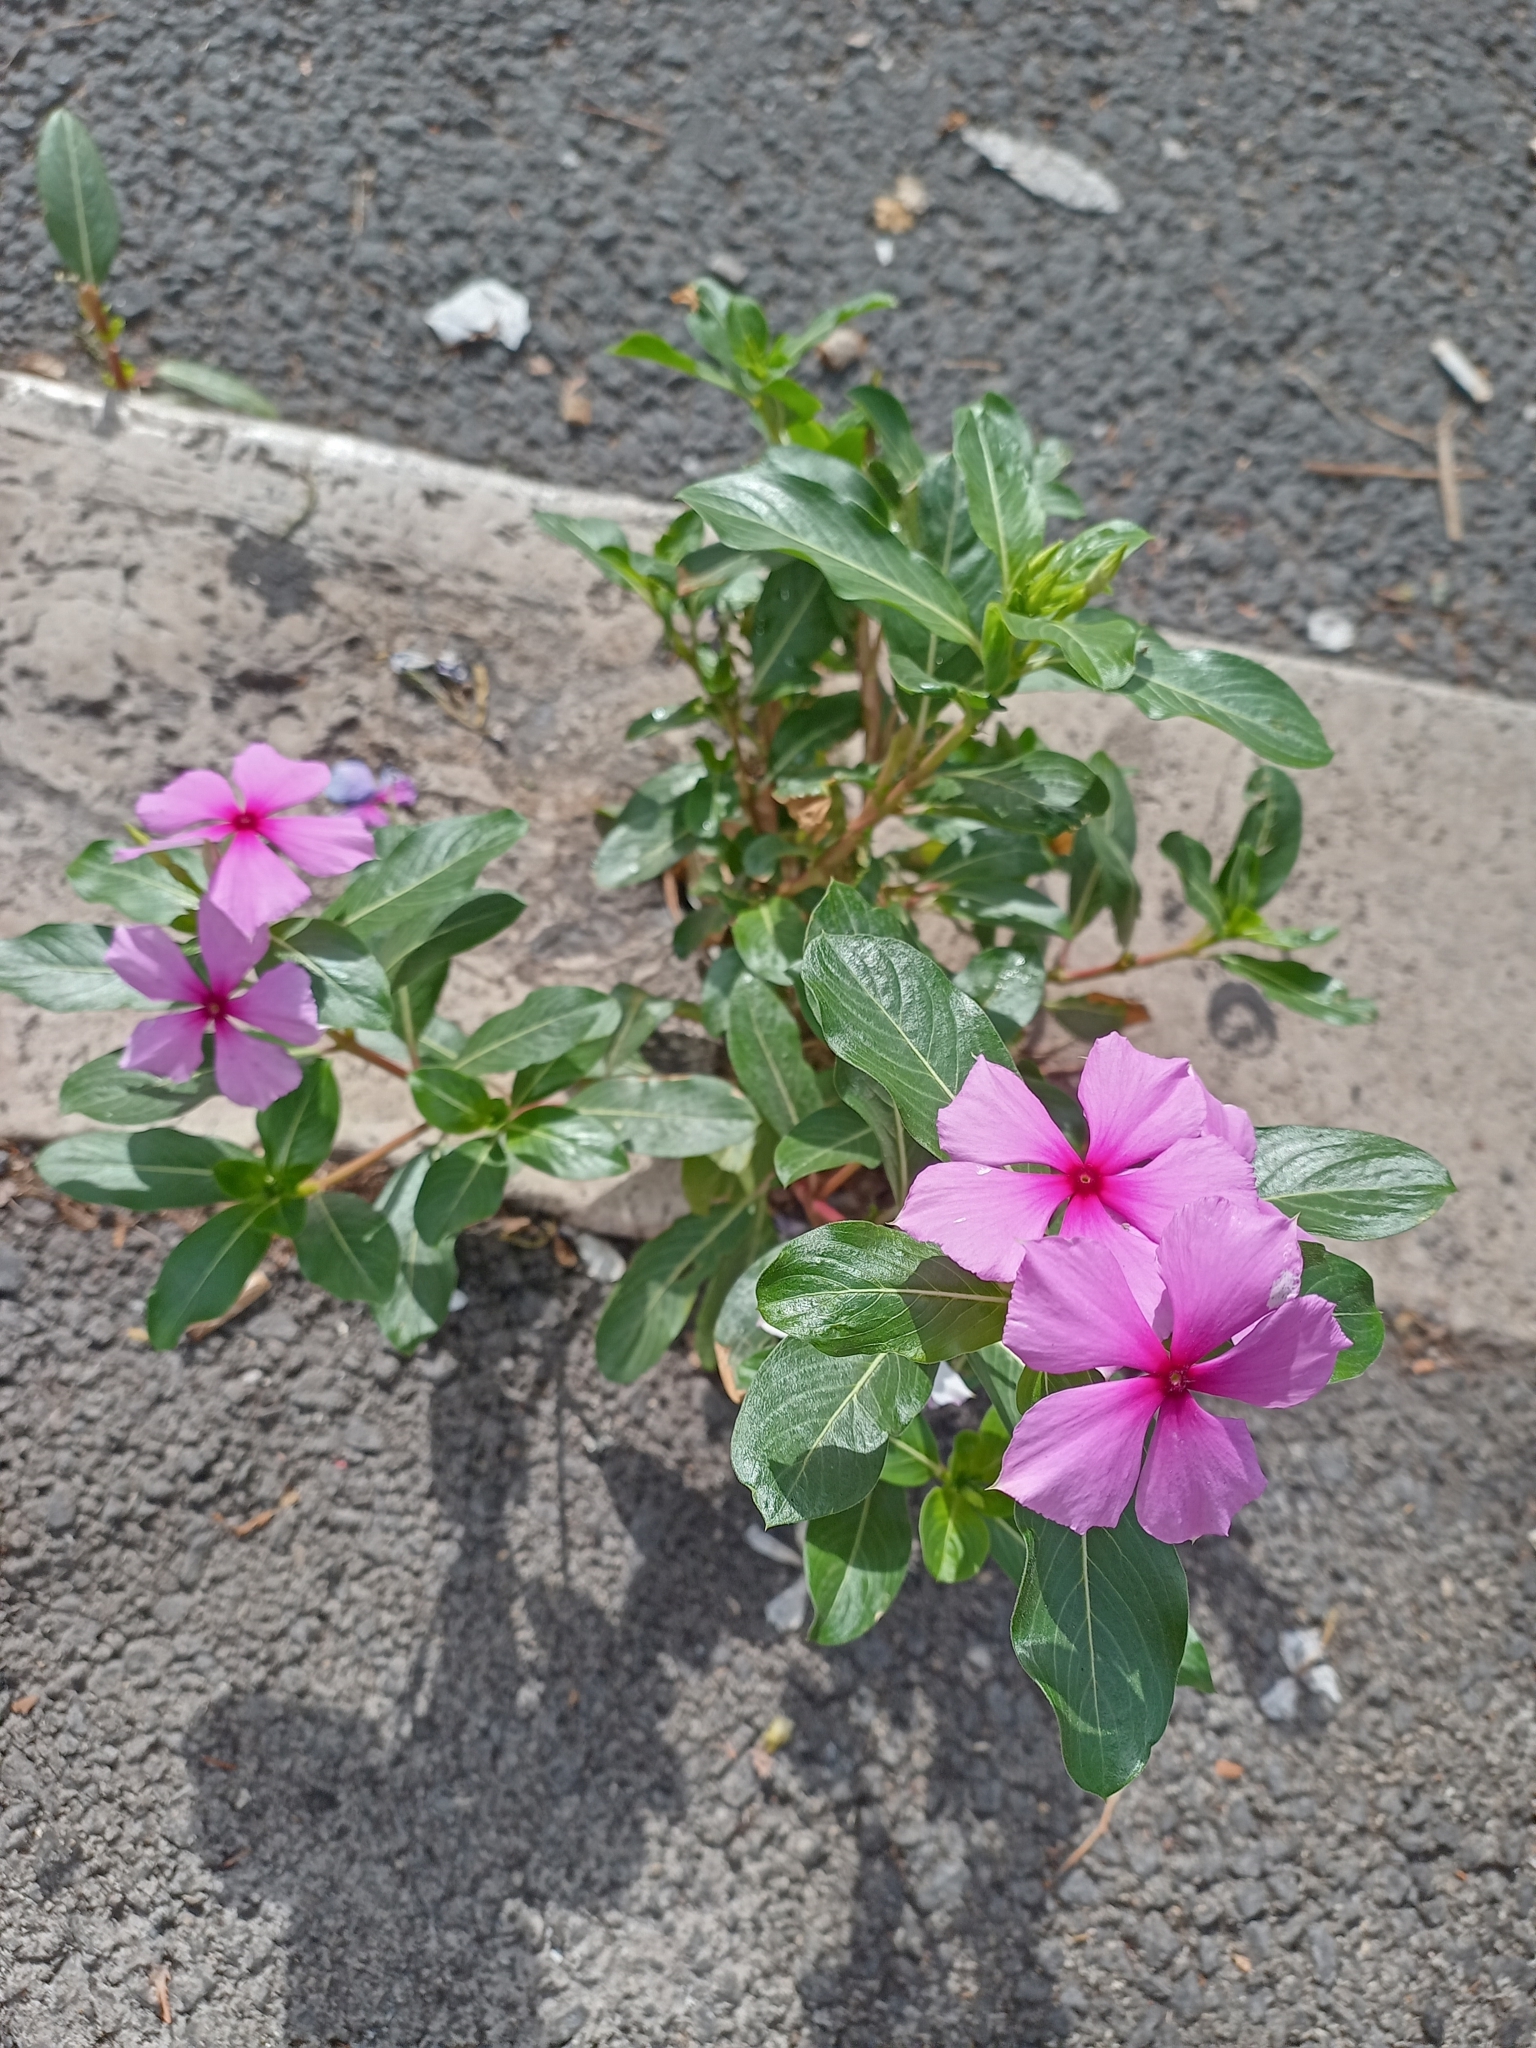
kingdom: Plantae
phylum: Tracheophyta
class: Magnoliopsida
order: Gentianales
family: Apocynaceae
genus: Catharanthus
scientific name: Catharanthus roseus
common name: Madagascar periwinkle
